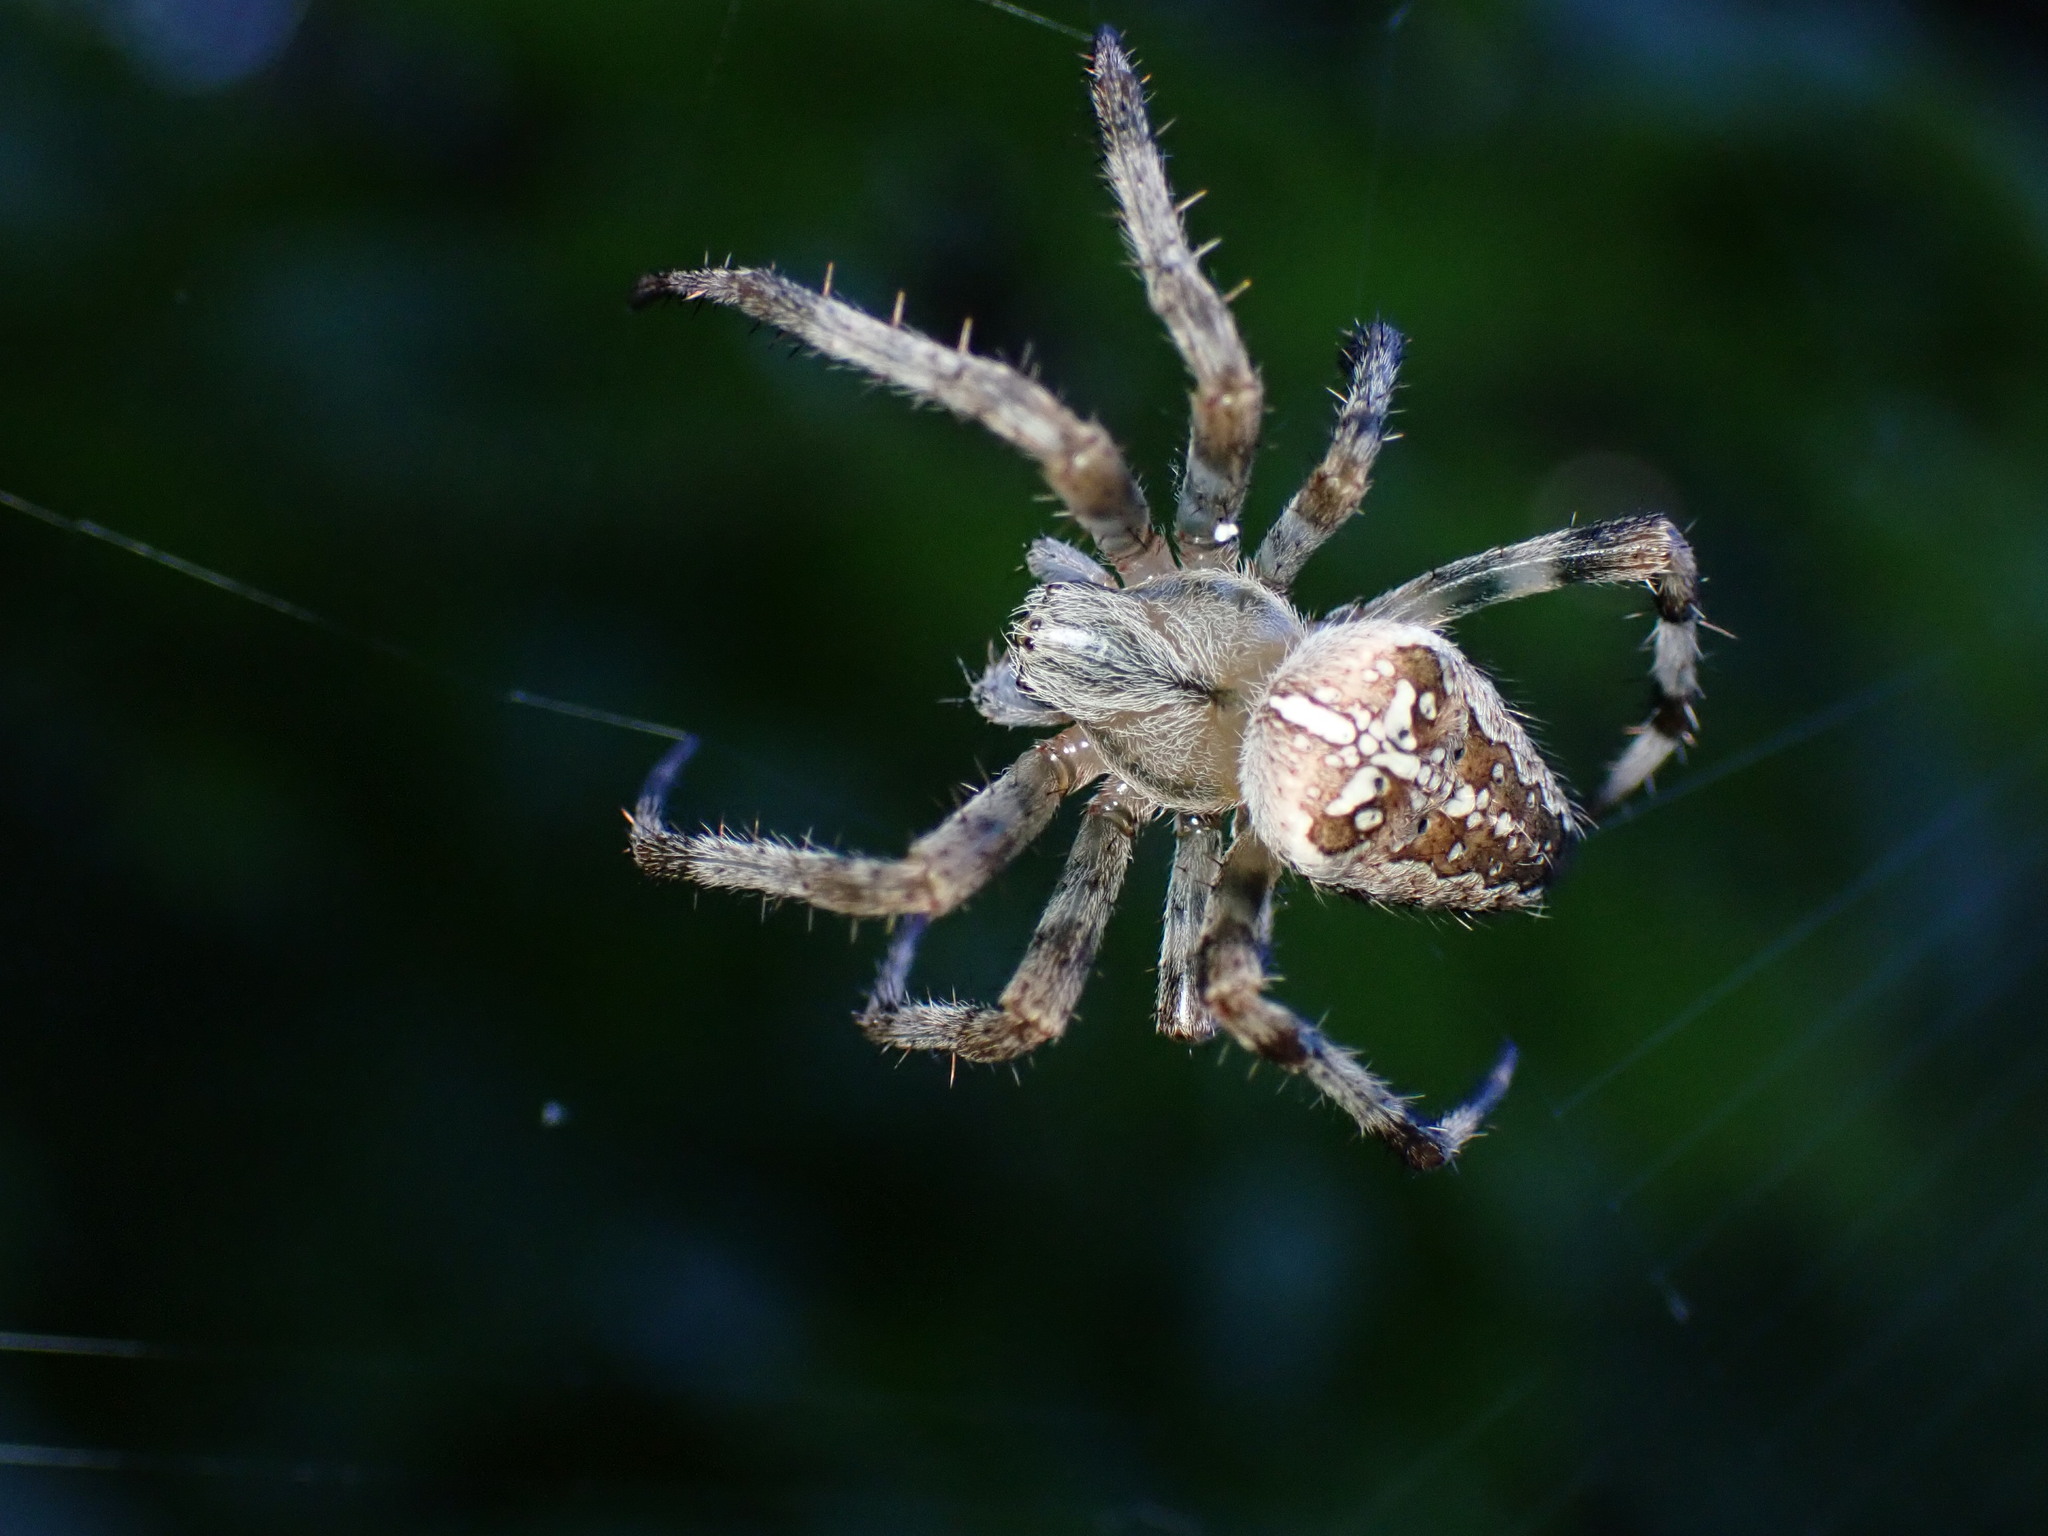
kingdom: Animalia
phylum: Arthropoda
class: Arachnida
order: Araneae
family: Araneidae
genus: Araneus
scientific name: Araneus diadematus
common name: Cross orbweaver
